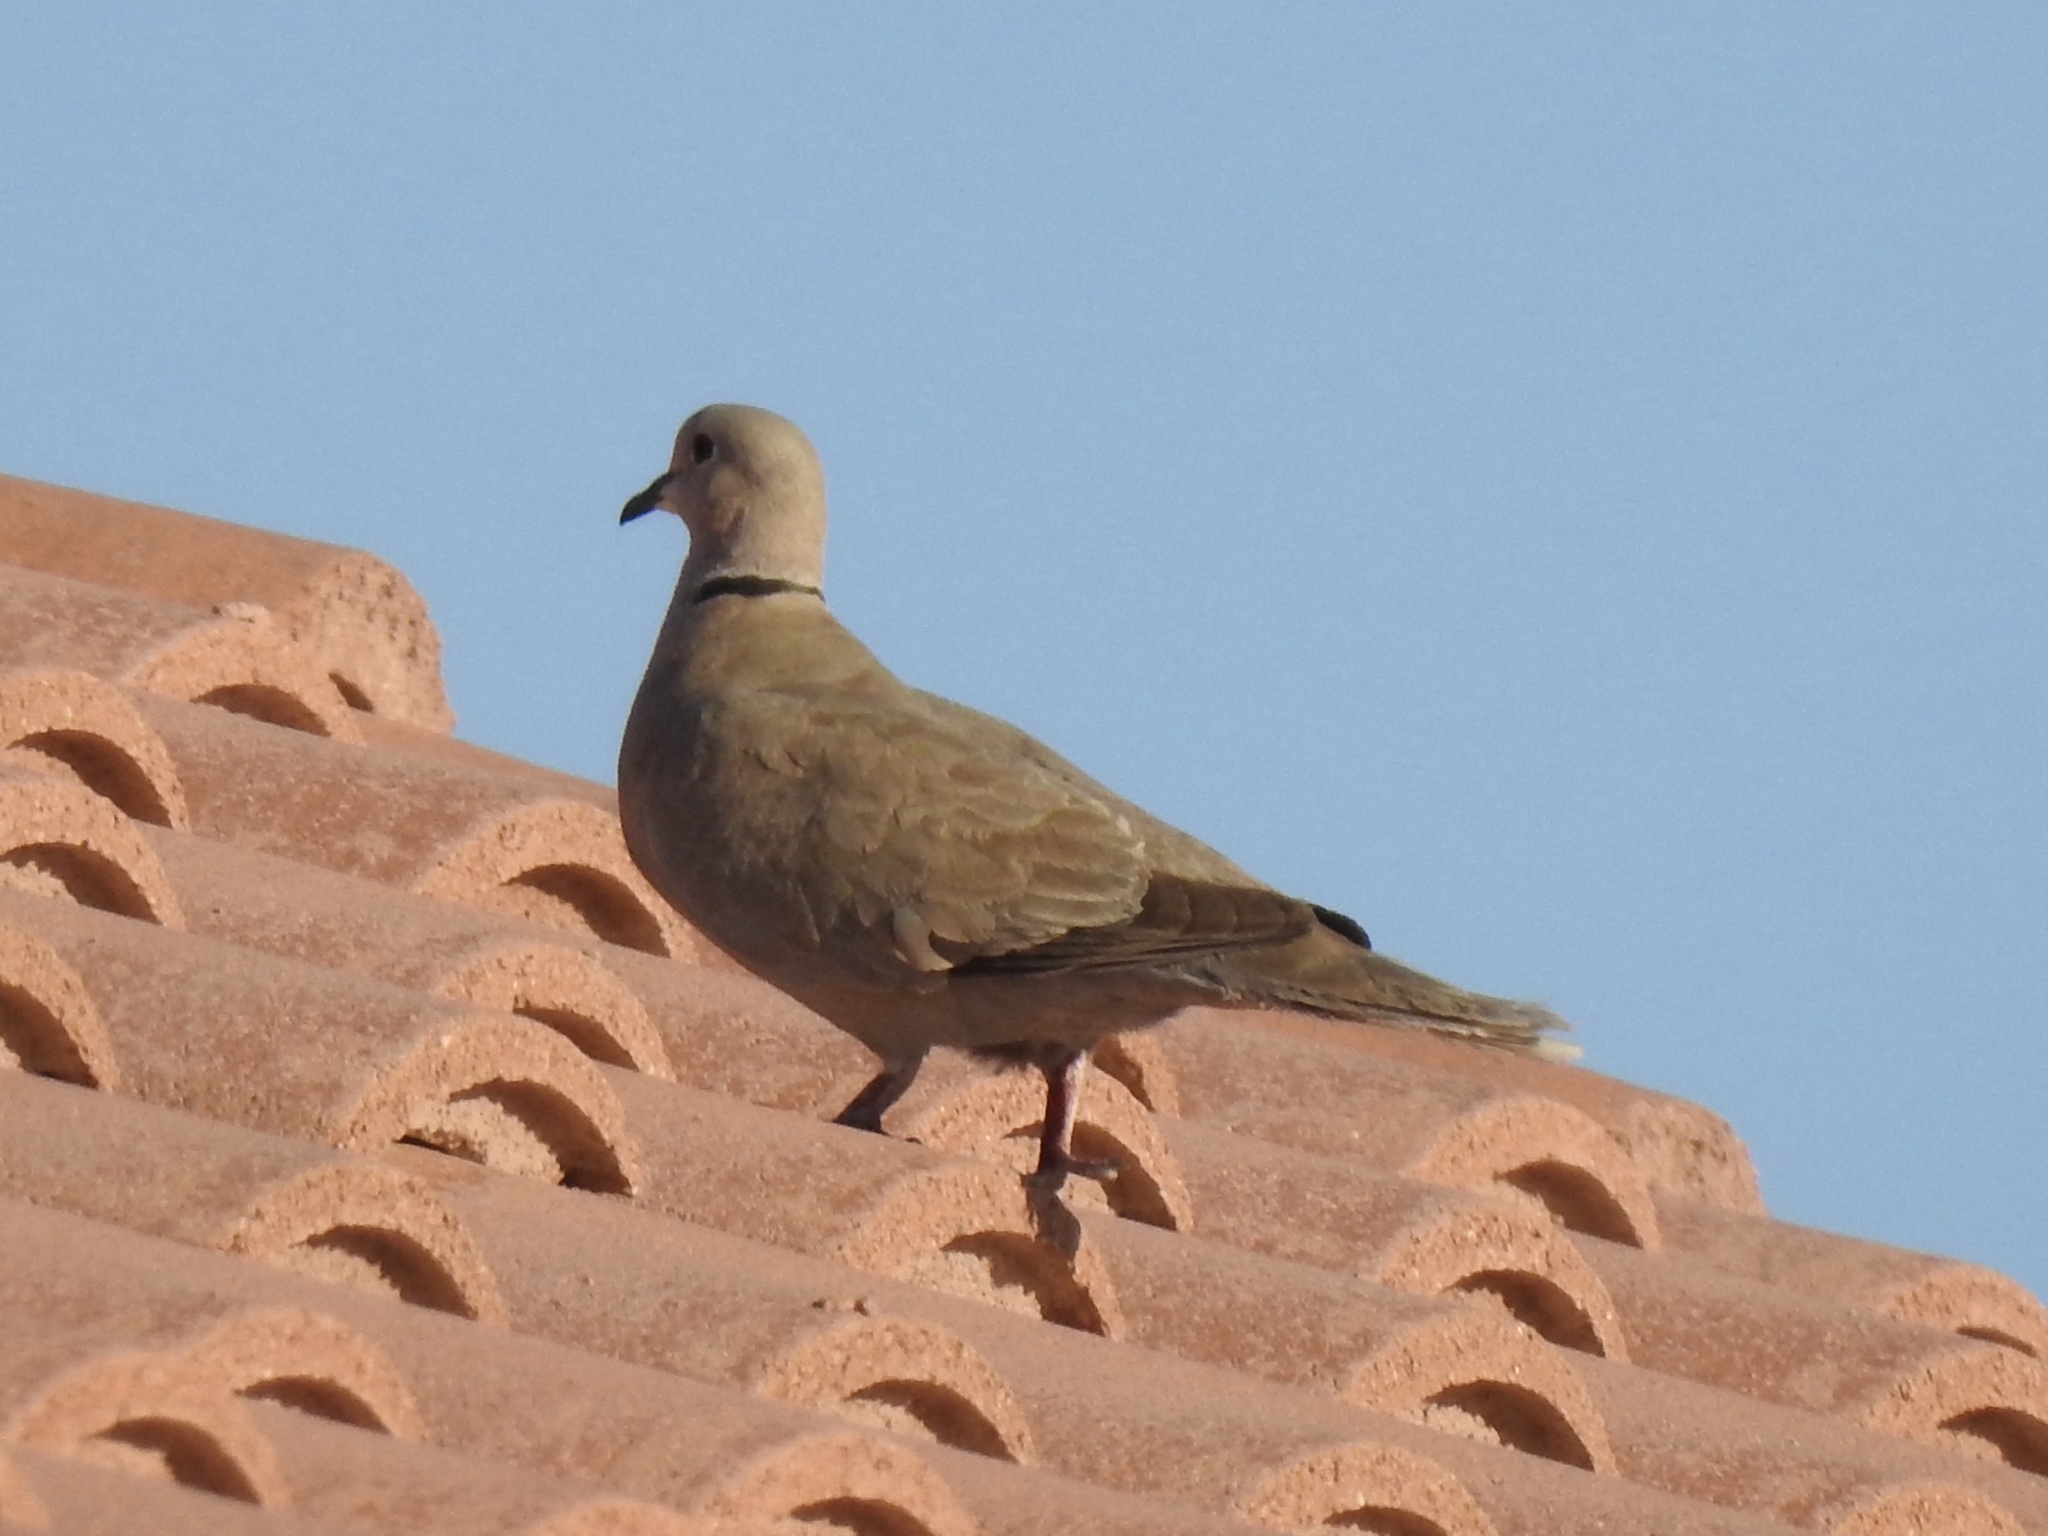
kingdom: Animalia
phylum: Chordata
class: Aves
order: Columbiformes
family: Columbidae
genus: Streptopelia
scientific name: Streptopelia decaocto
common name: Eurasian collared dove
